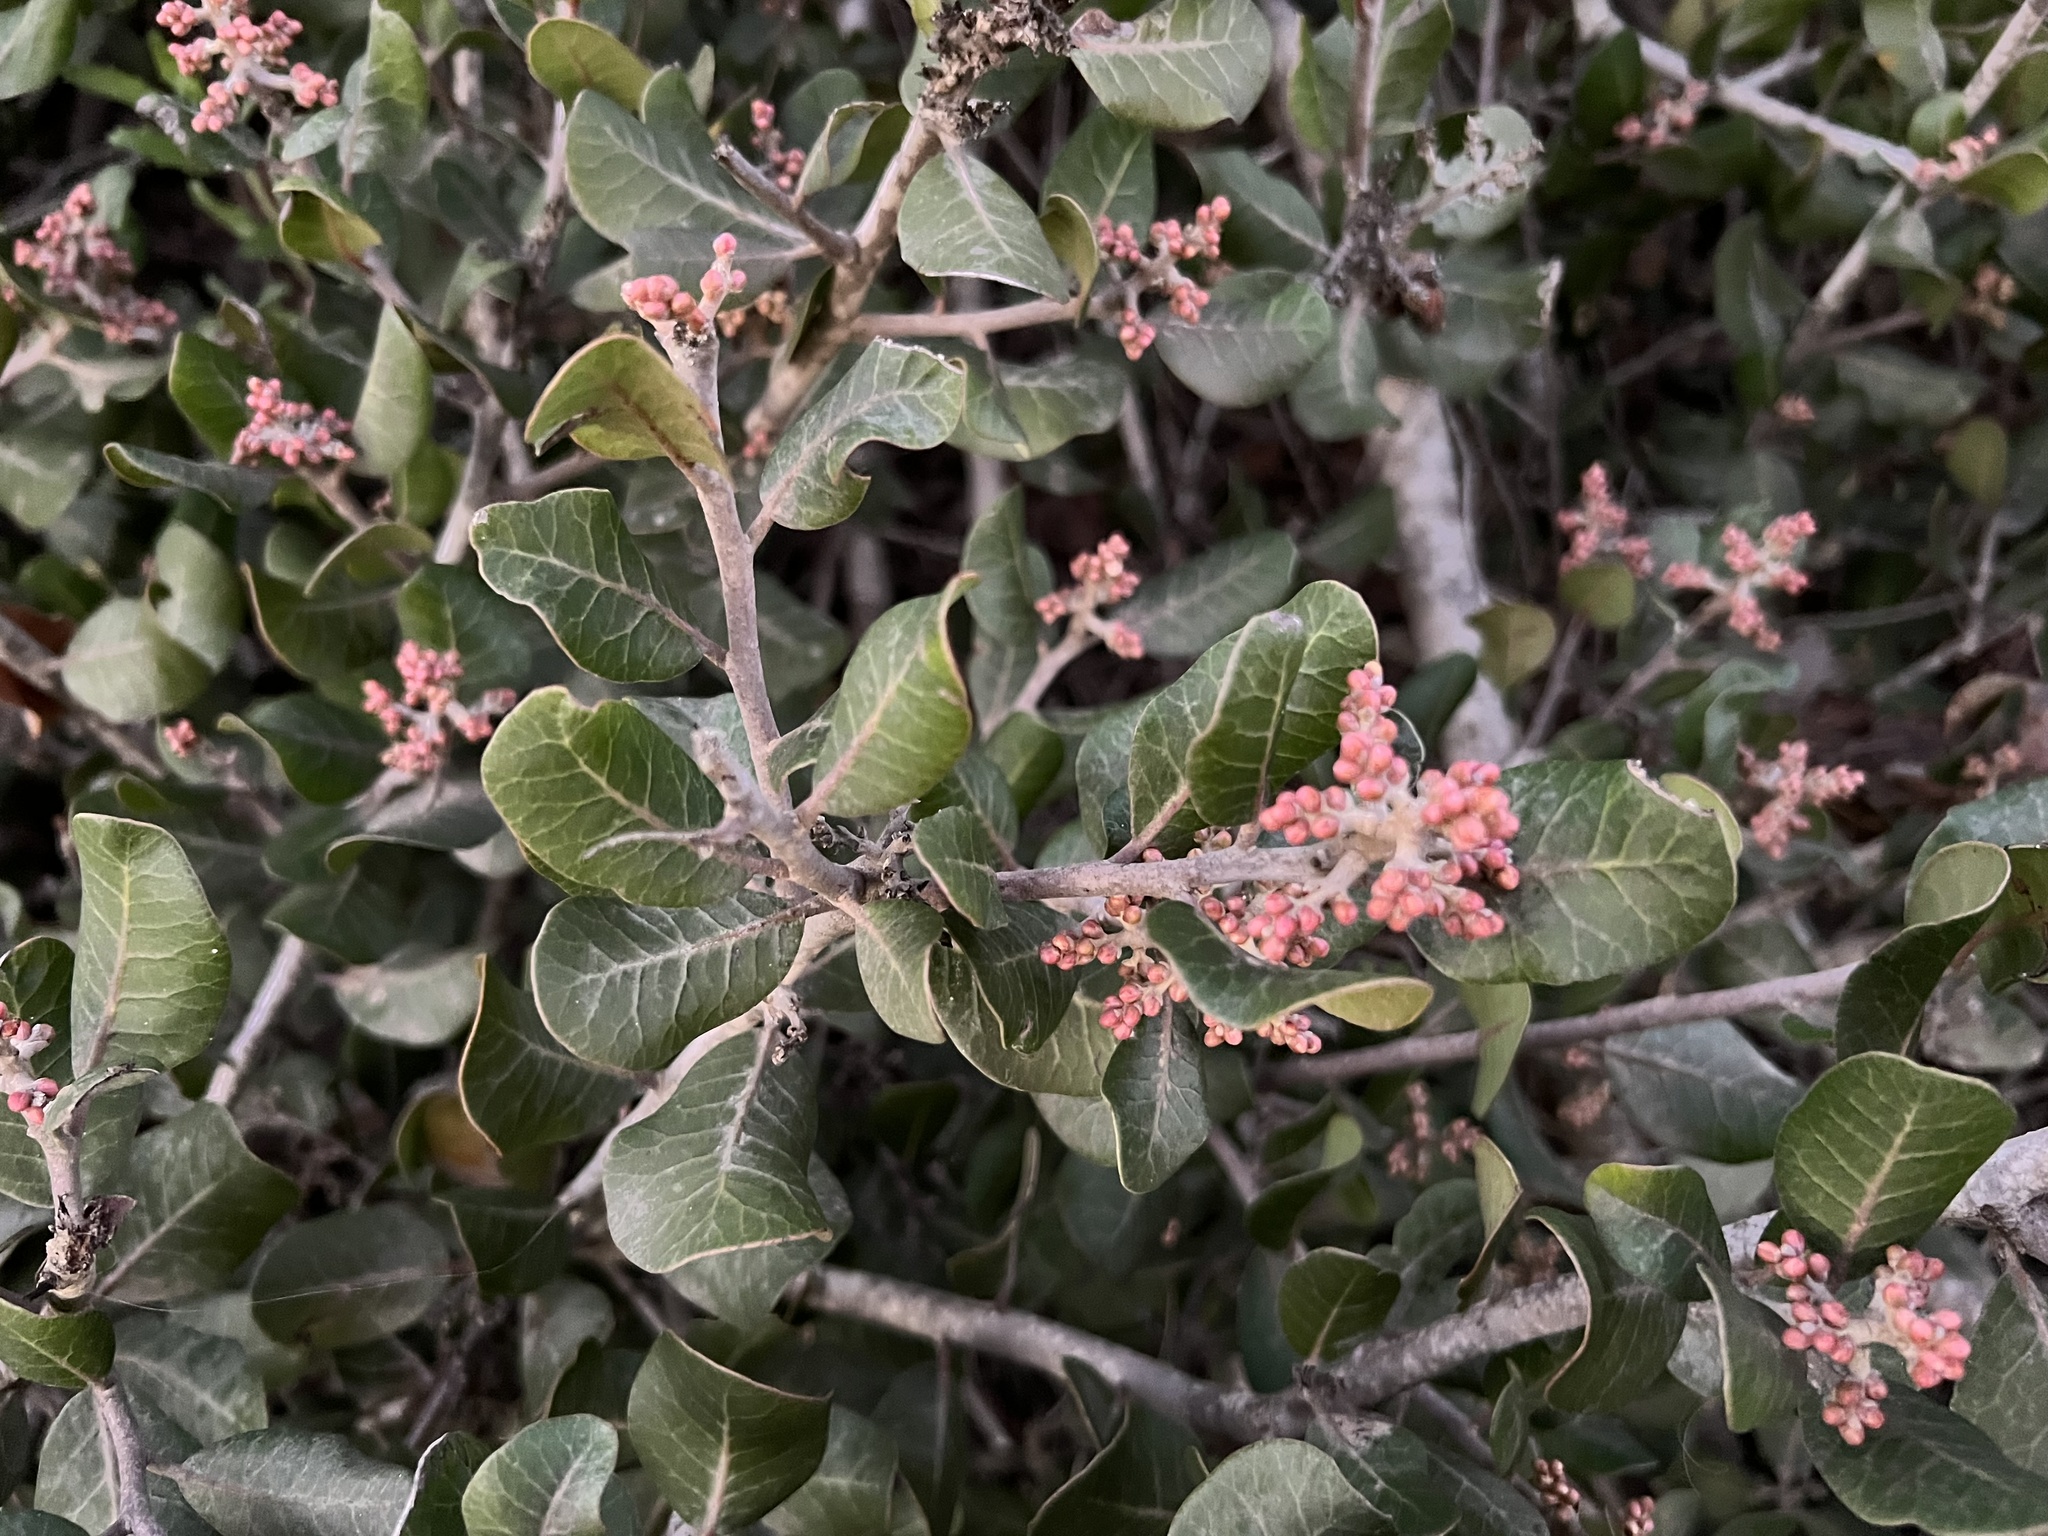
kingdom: Plantae
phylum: Tracheophyta
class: Magnoliopsida
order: Sapindales
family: Anacardiaceae
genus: Rhus
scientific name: Rhus integrifolia
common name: Lemonade sumac
